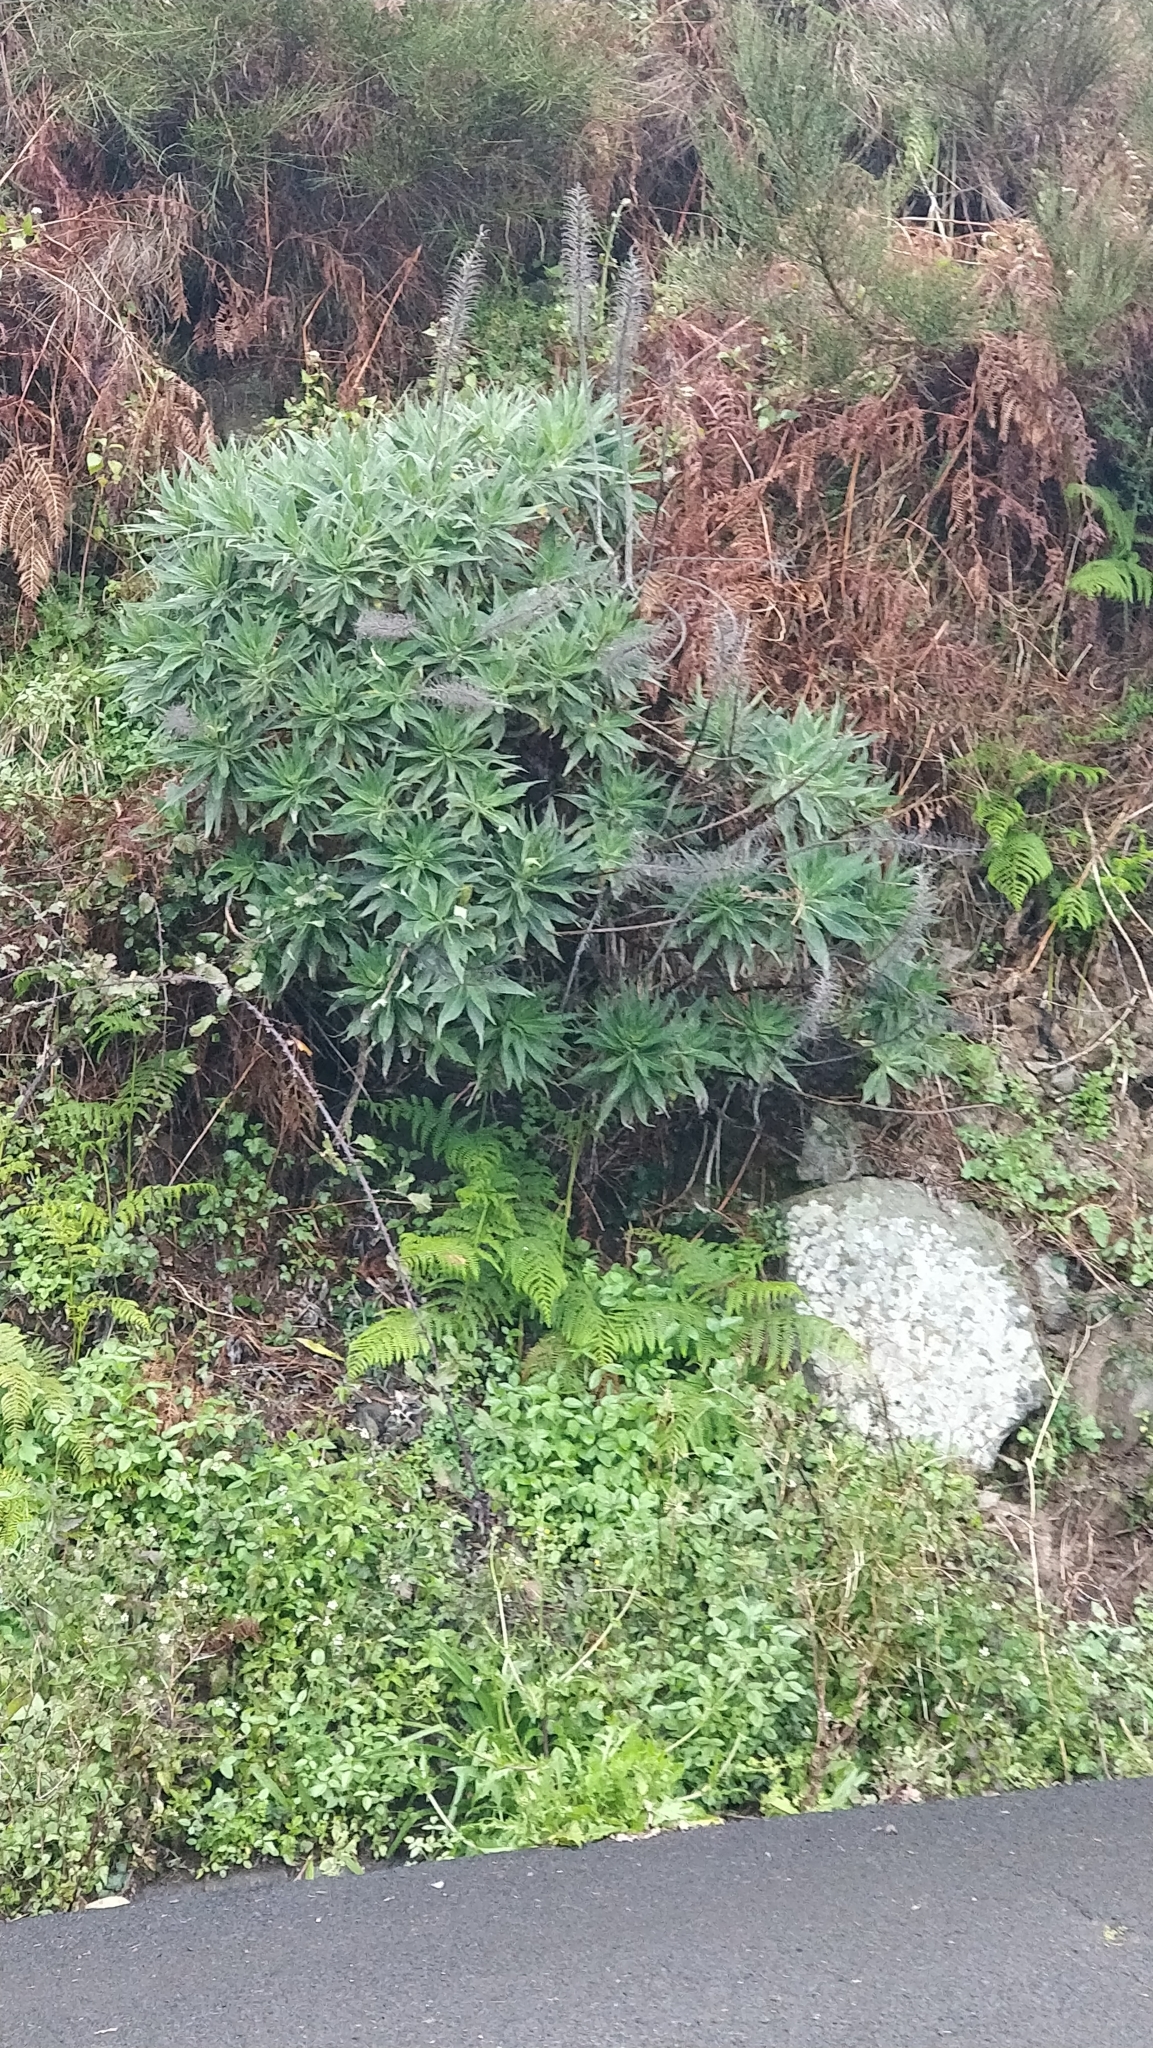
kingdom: Plantae
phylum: Tracheophyta
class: Magnoliopsida
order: Boraginales
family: Boraginaceae
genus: Echium
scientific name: Echium candicans
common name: Pride of madeira
